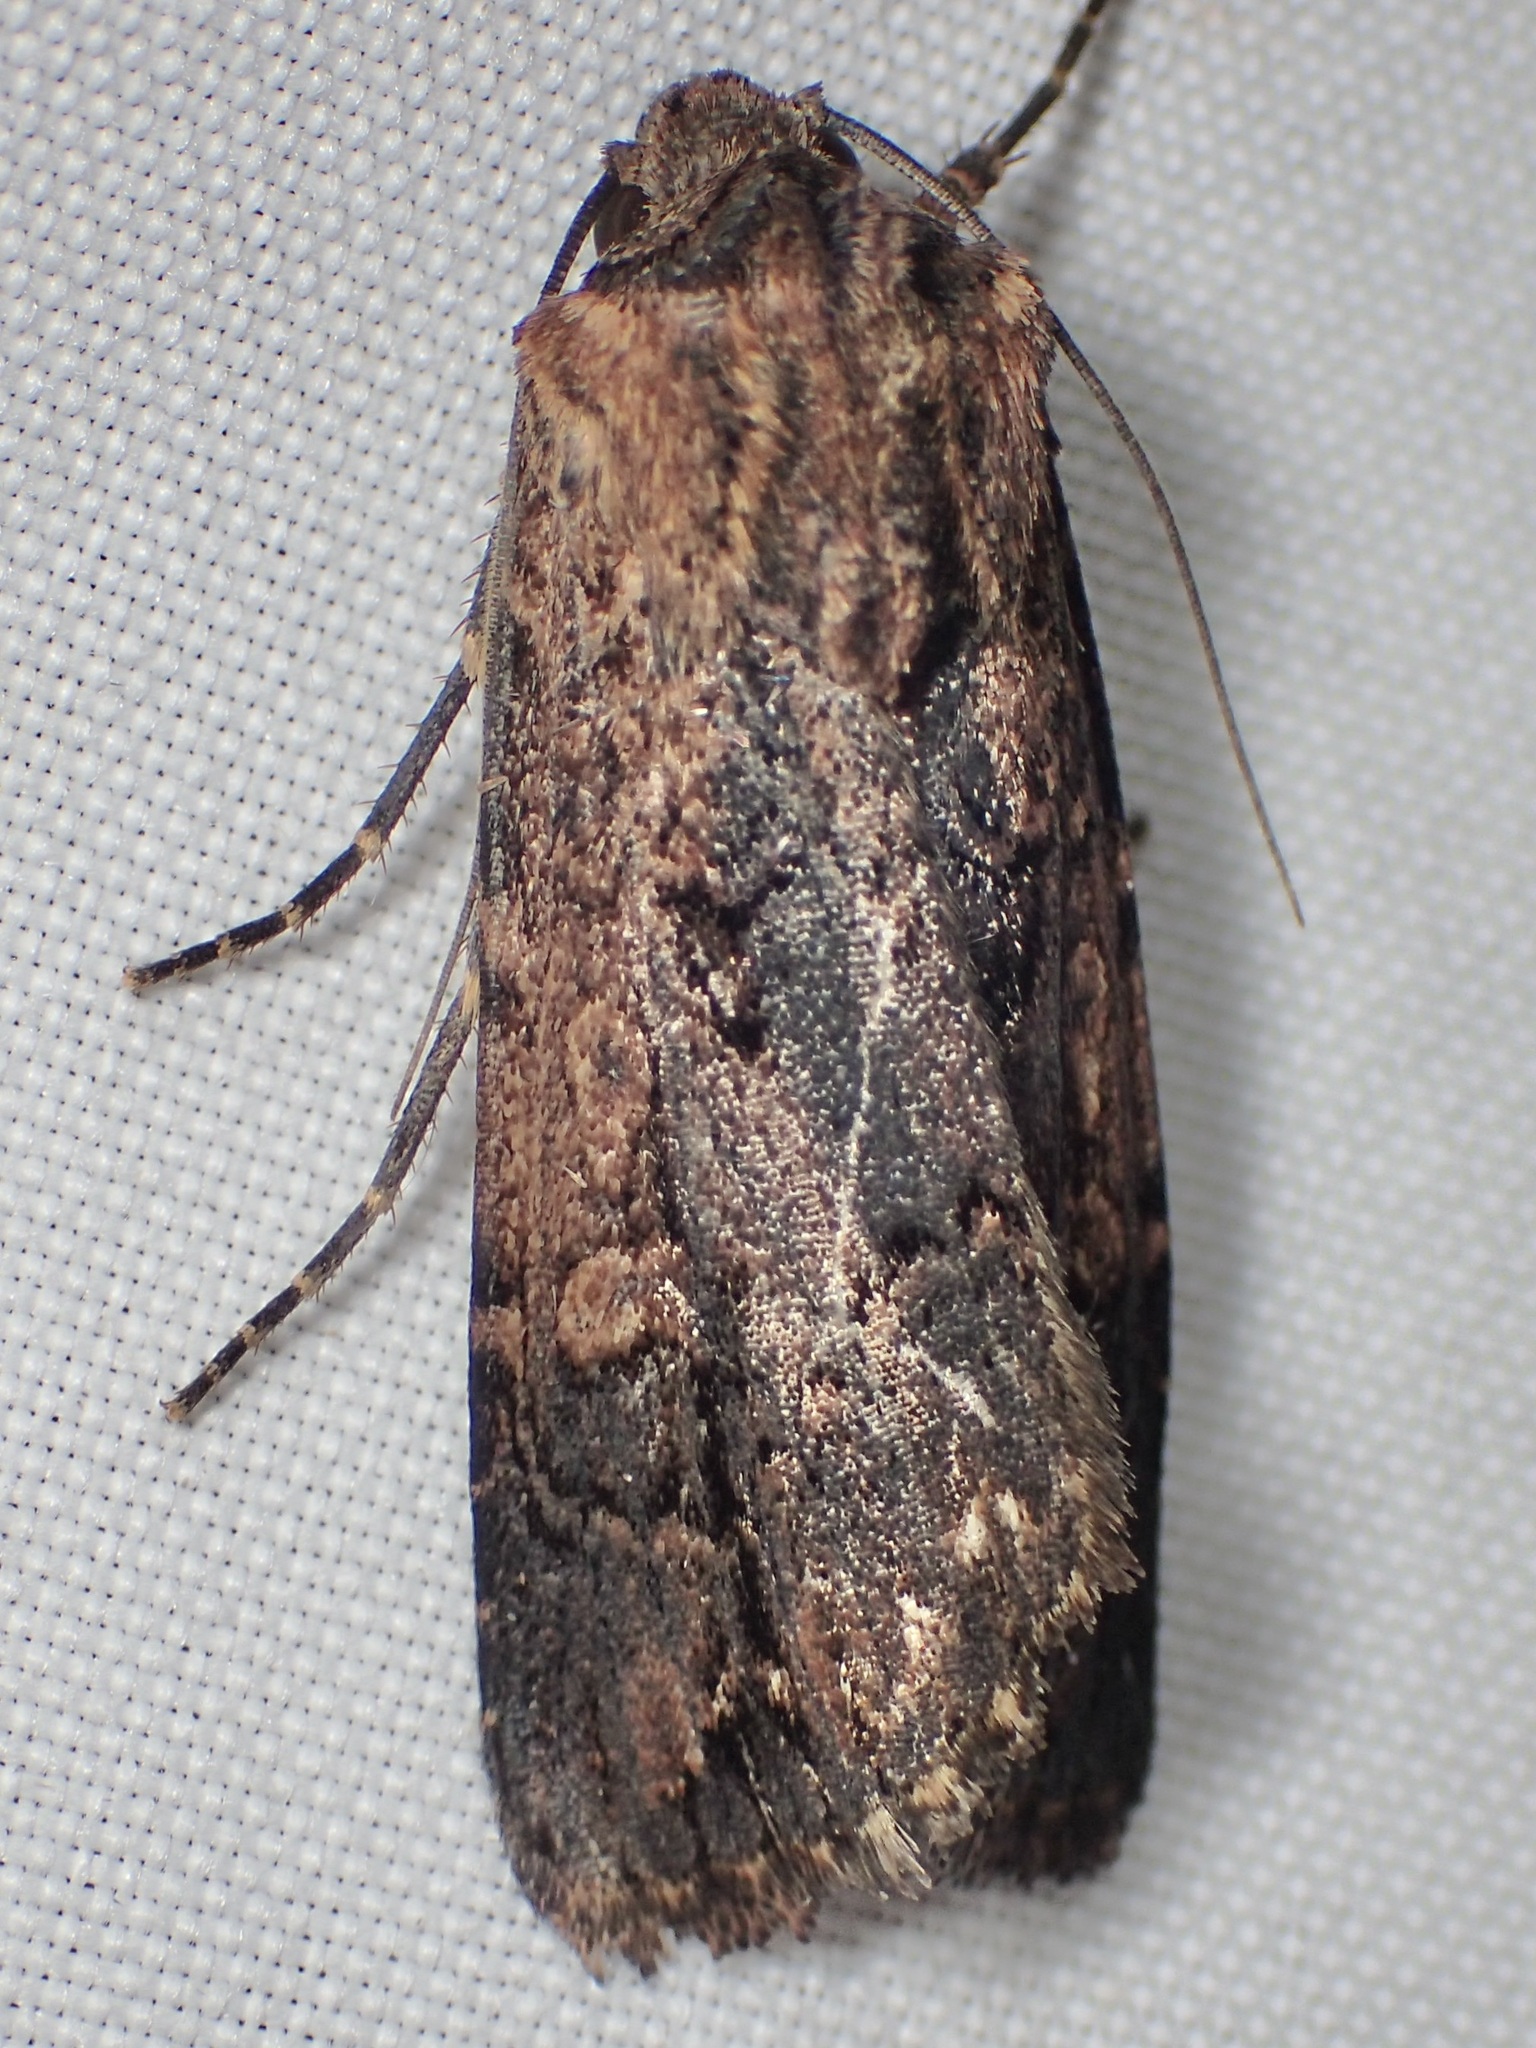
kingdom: Animalia
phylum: Arthropoda
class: Insecta
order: Lepidoptera
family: Noctuidae
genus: Dichagyris
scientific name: Dichagyris proclivis
